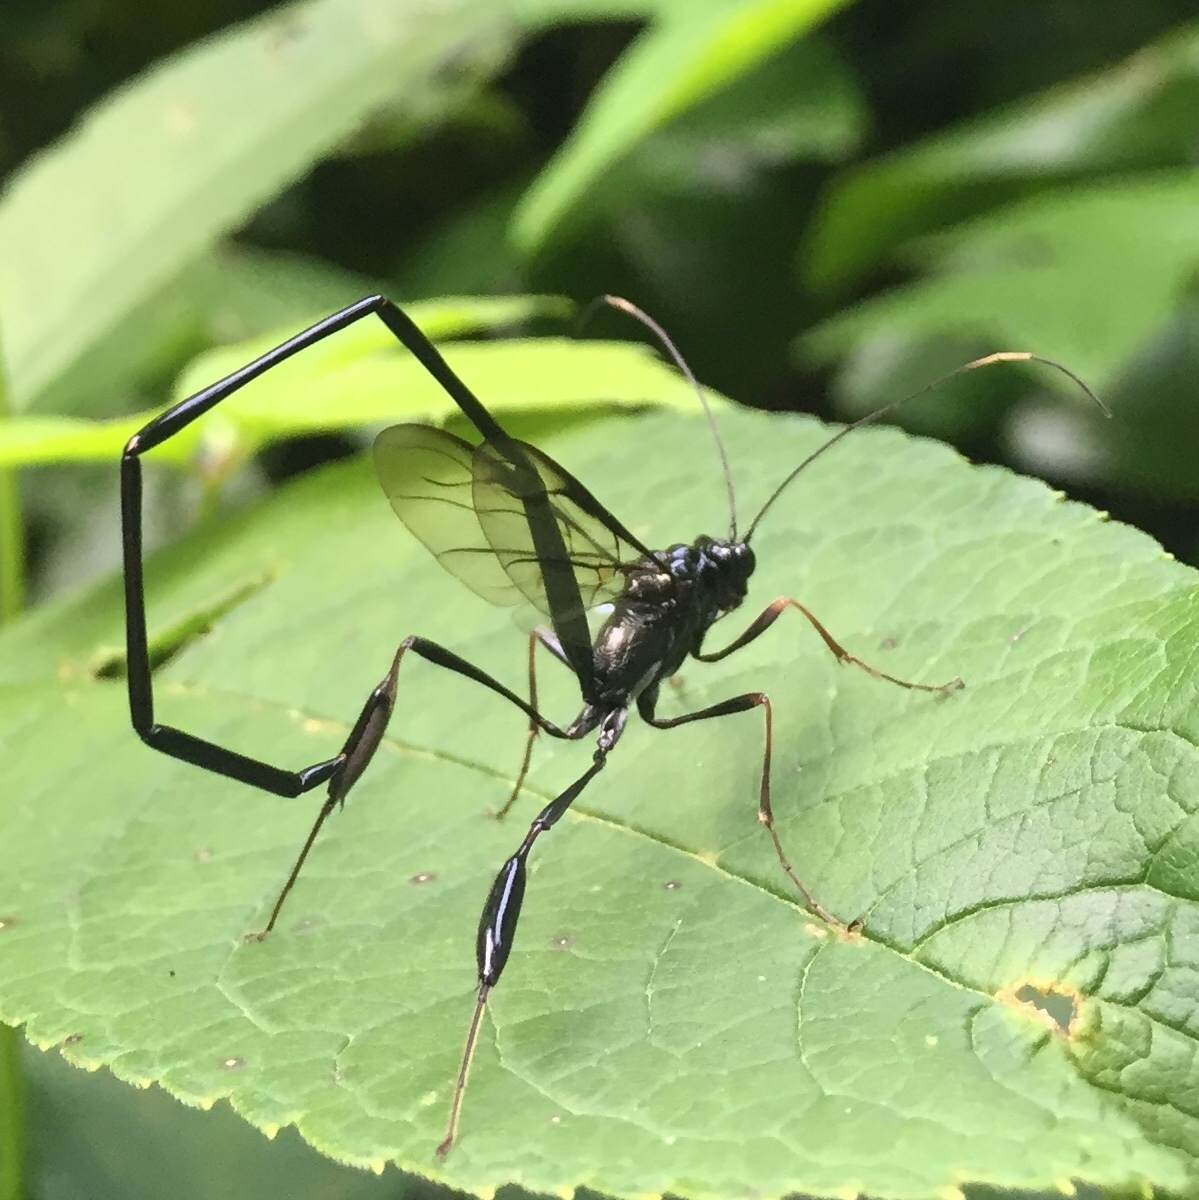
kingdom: Animalia
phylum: Arthropoda
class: Insecta
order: Hymenoptera
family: Pelecinidae
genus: Pelecinus
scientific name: Pelecinus polyturator
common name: American pelecinid wasp
